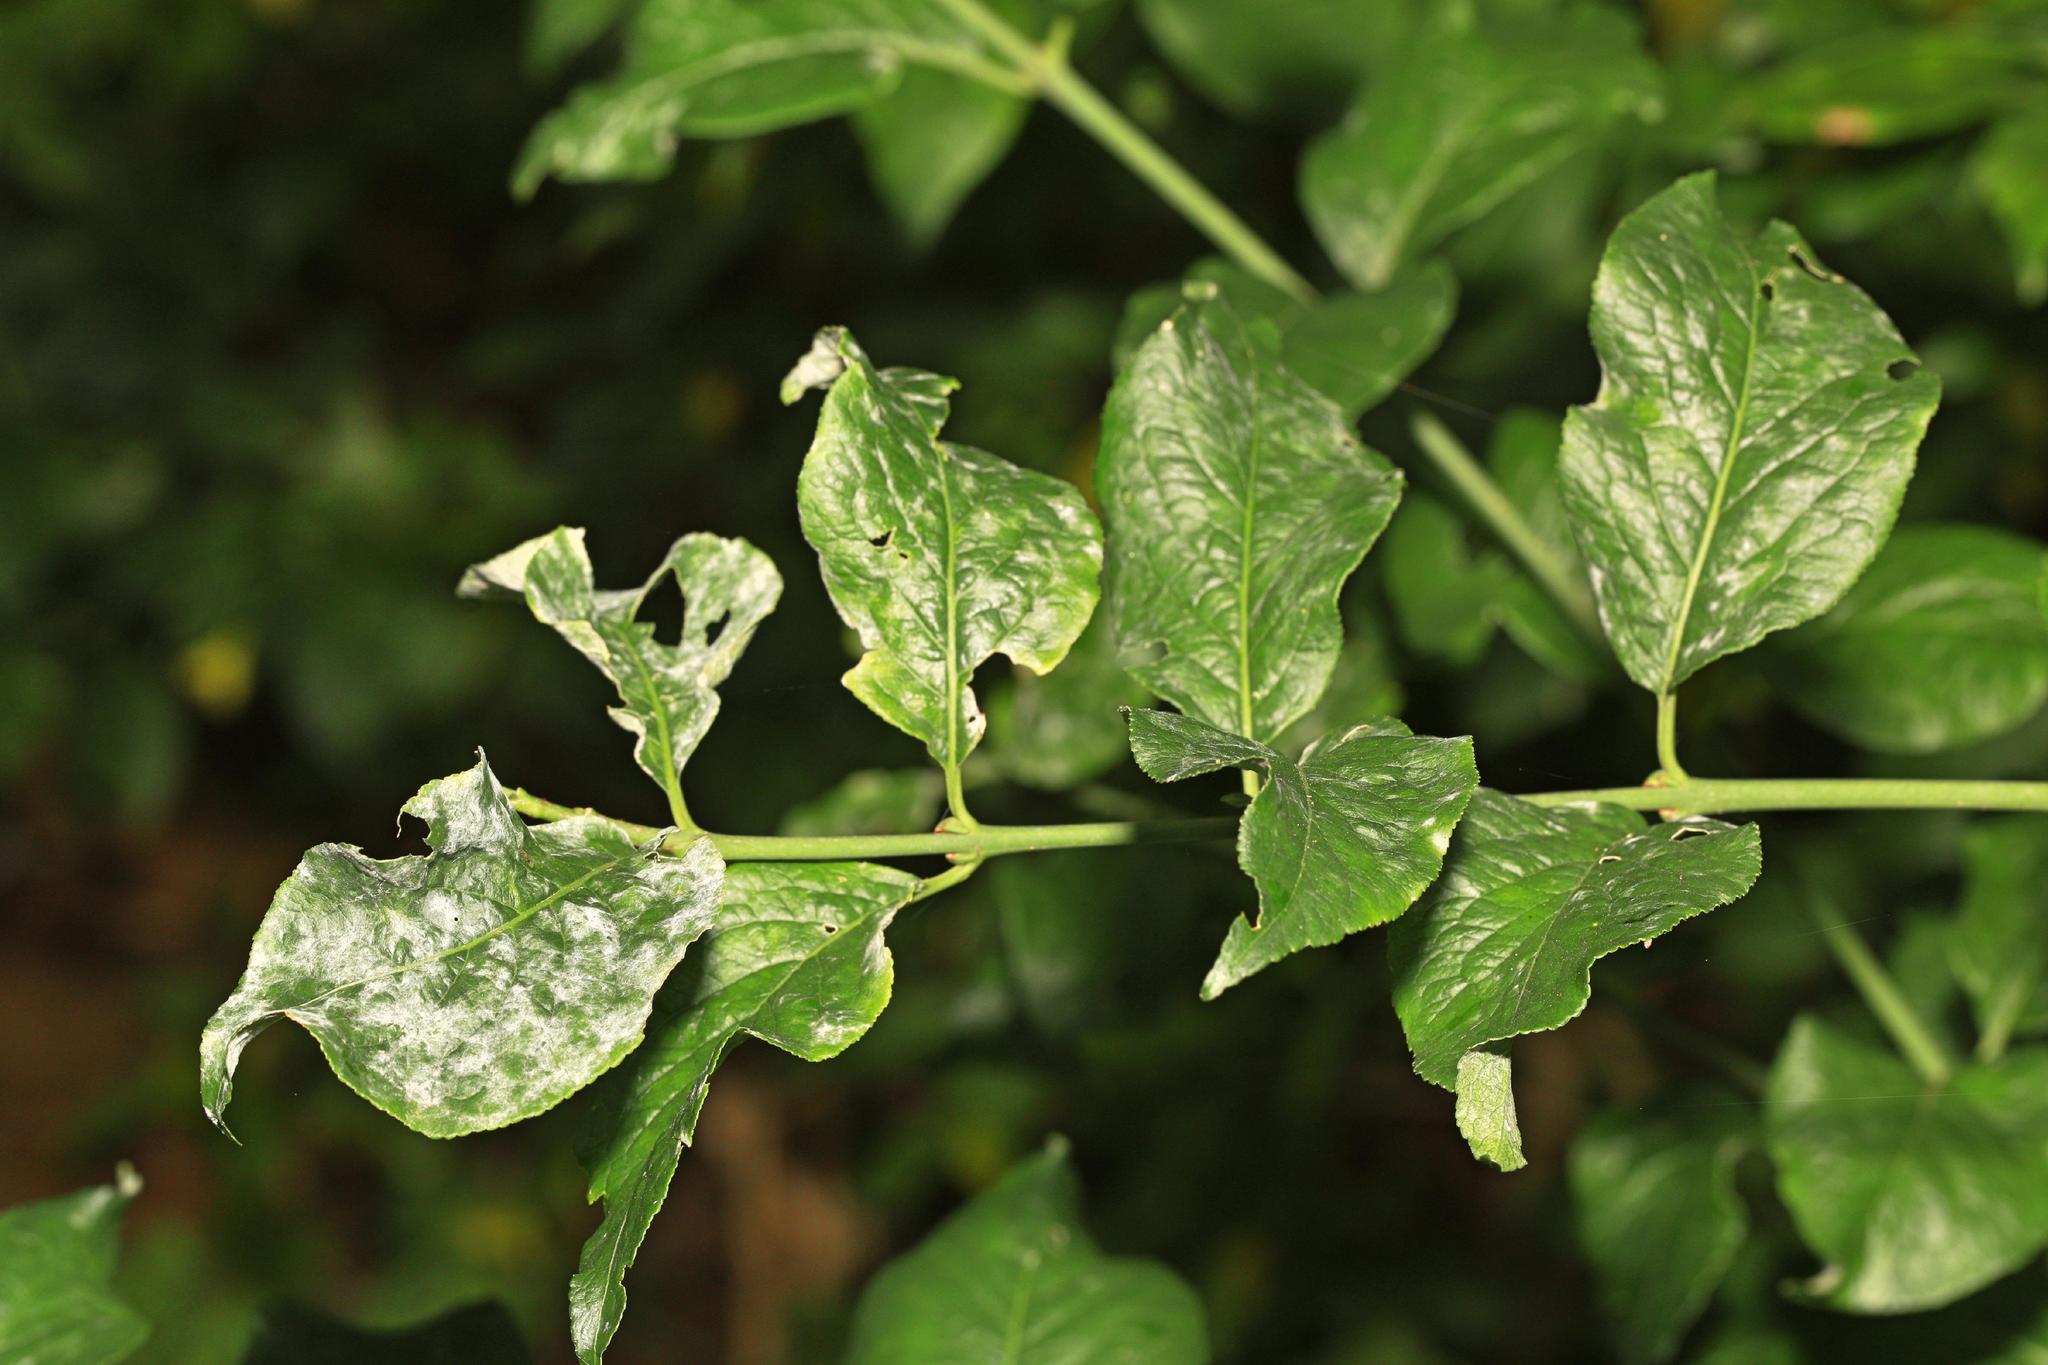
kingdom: Plantae
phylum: Tracheophyta
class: Magnoliopsida
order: Celastrales
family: Celastraceae
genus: Euonymus
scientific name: Euonymus europaeus
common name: Spindle
